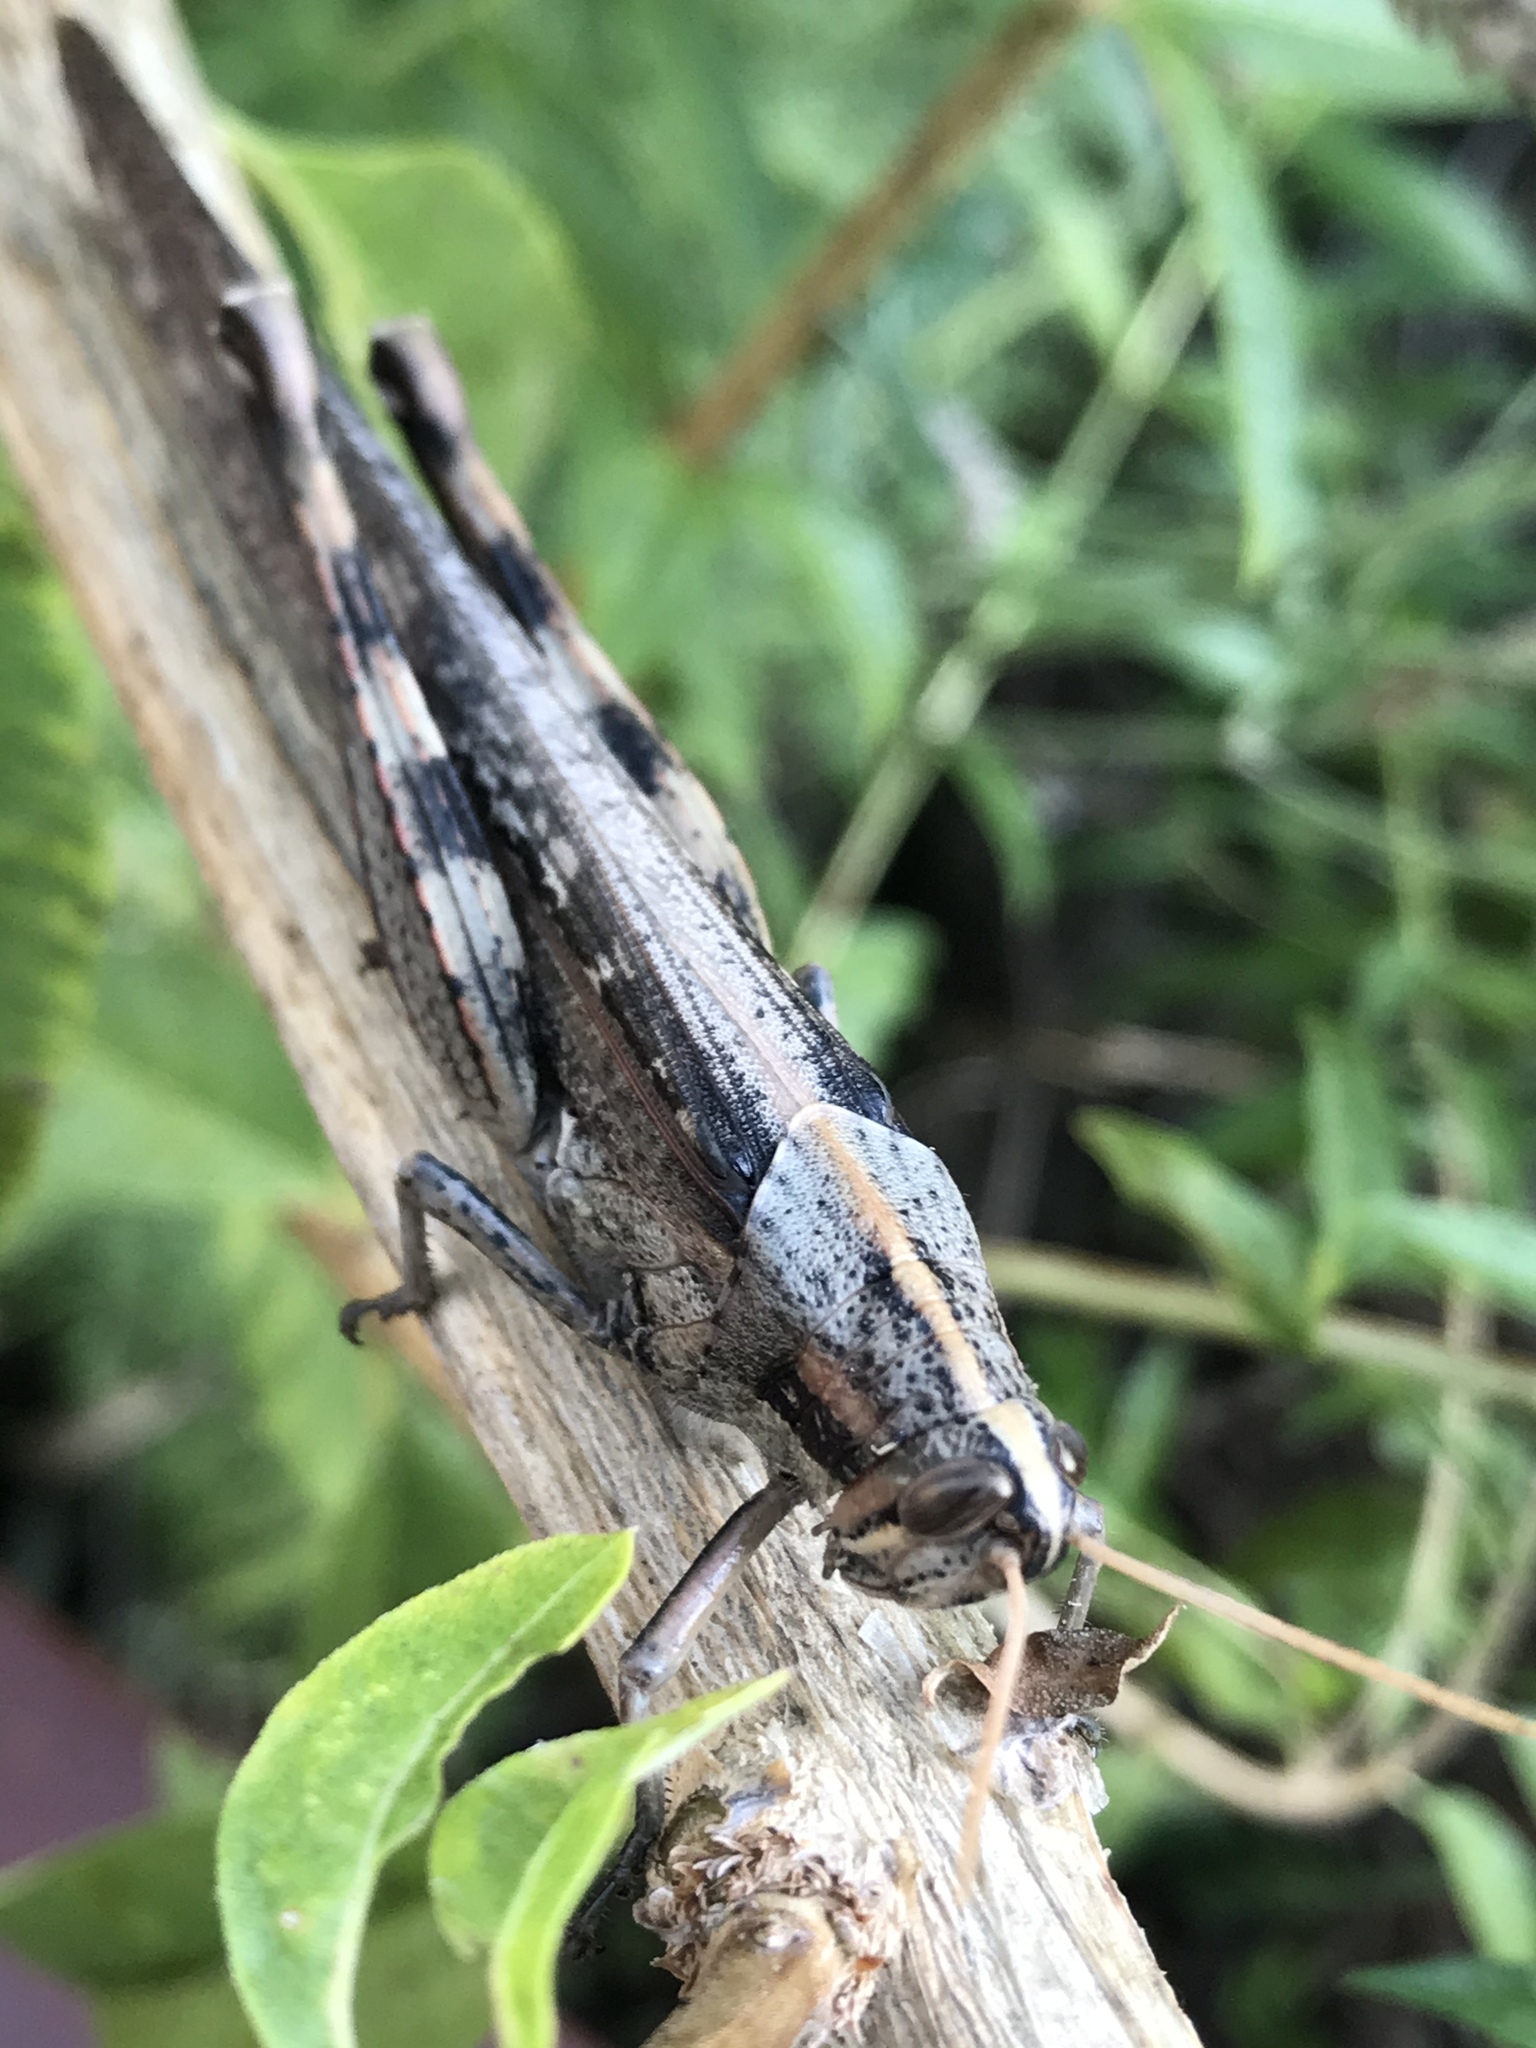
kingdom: Animalia
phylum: Arthropoda
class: Insecta
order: Orthoptera
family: Acrididae
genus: Schistocerca
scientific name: Schistocerca nitens
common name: Vagrant grasshopper
